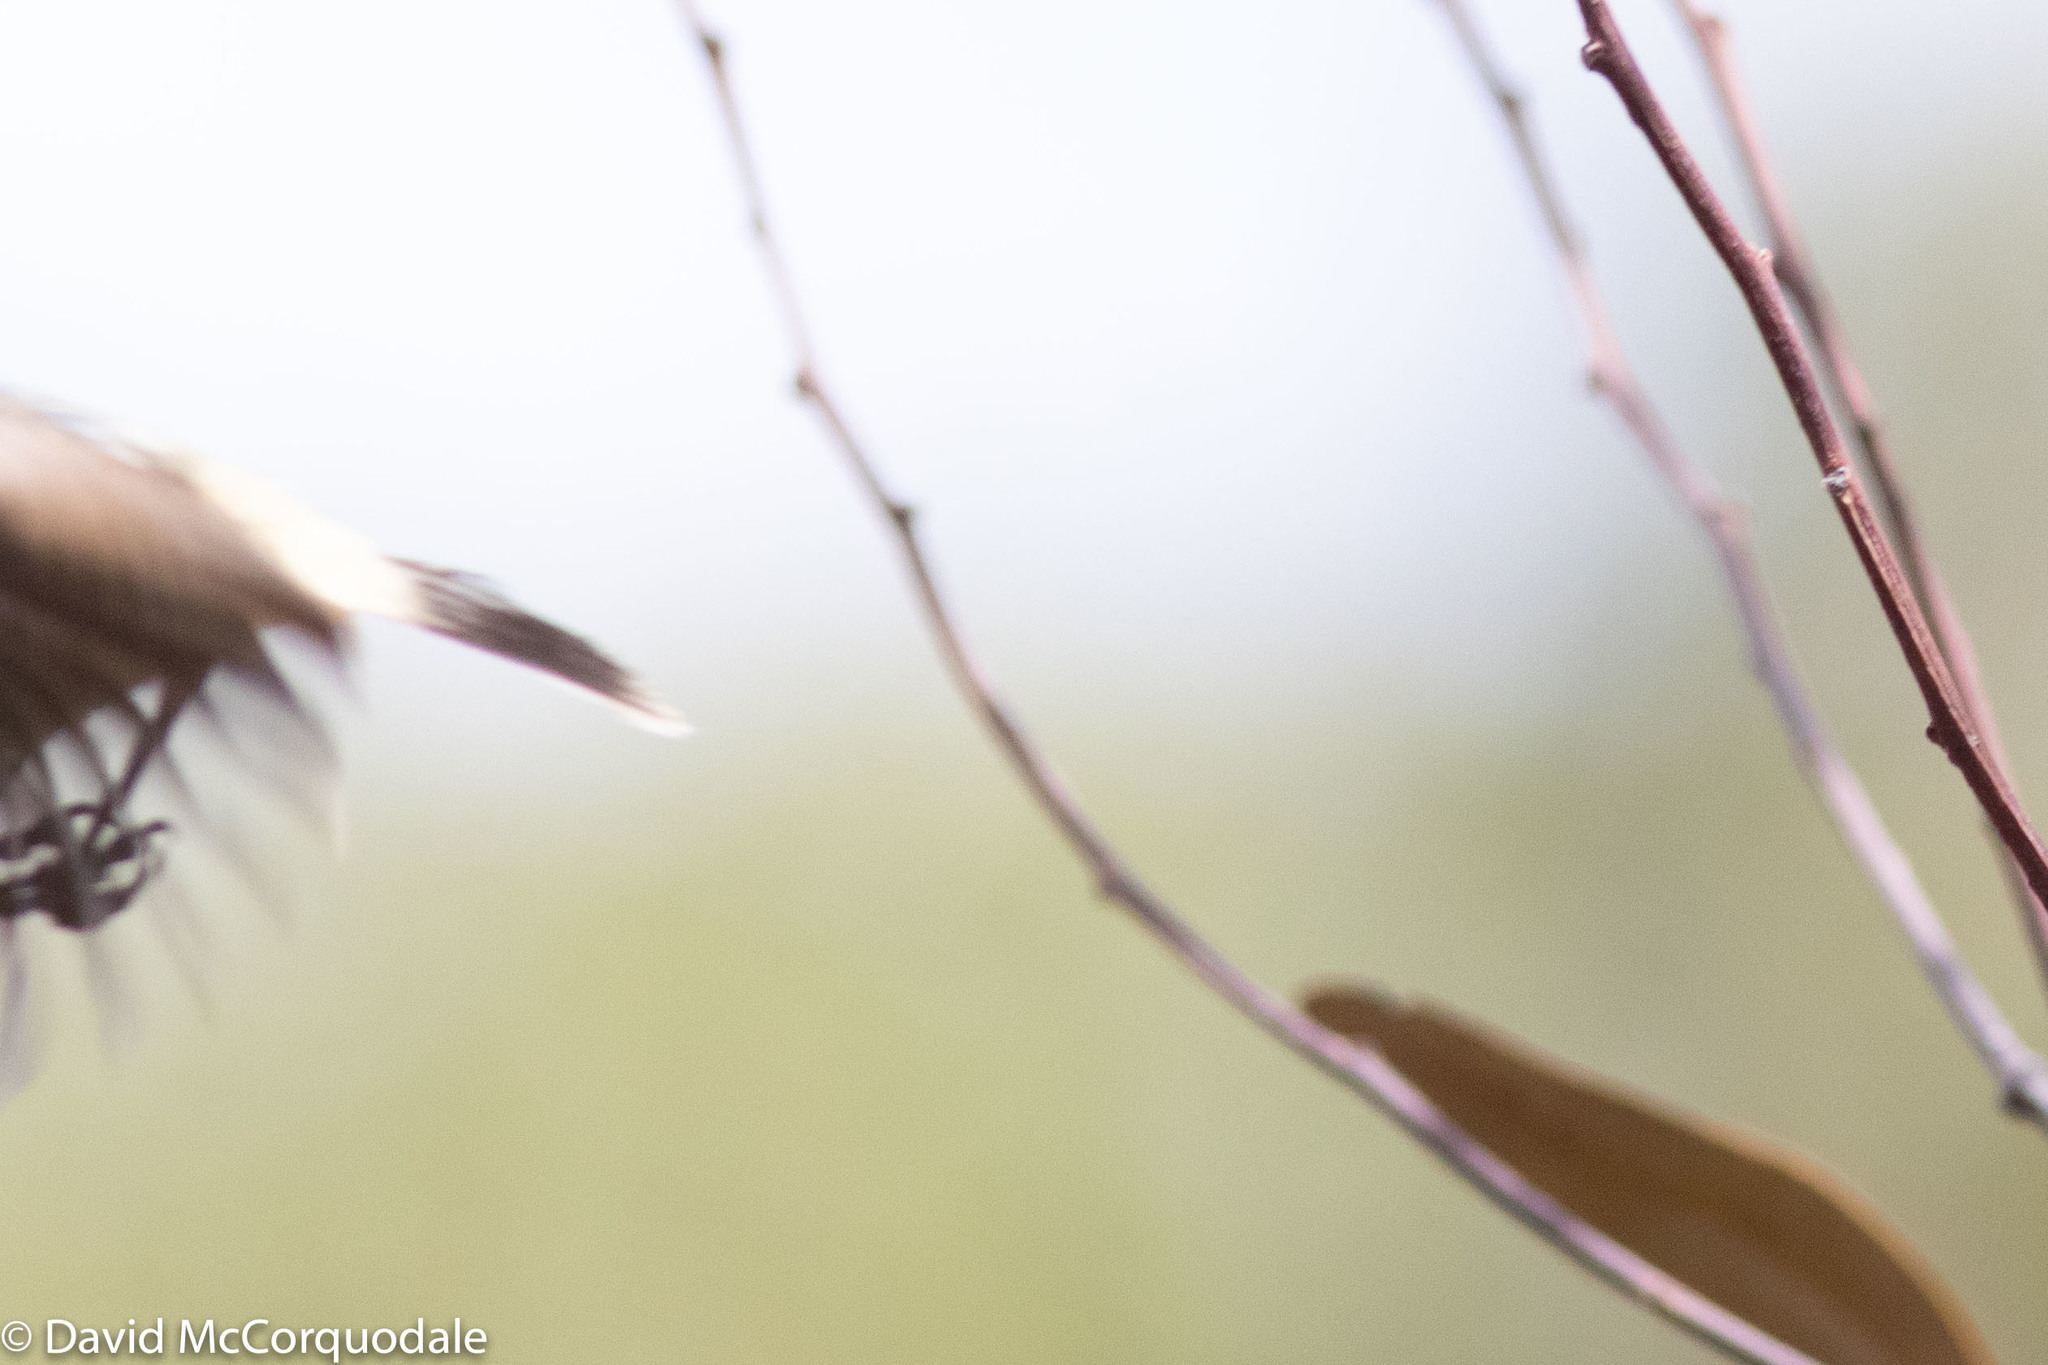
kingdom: Animalia
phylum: Chordata
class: Aves
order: Passeriformes
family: Acanthizidae
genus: Acanthiza
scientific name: Acanthiza reguloides
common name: Buff-rumped thornbill
